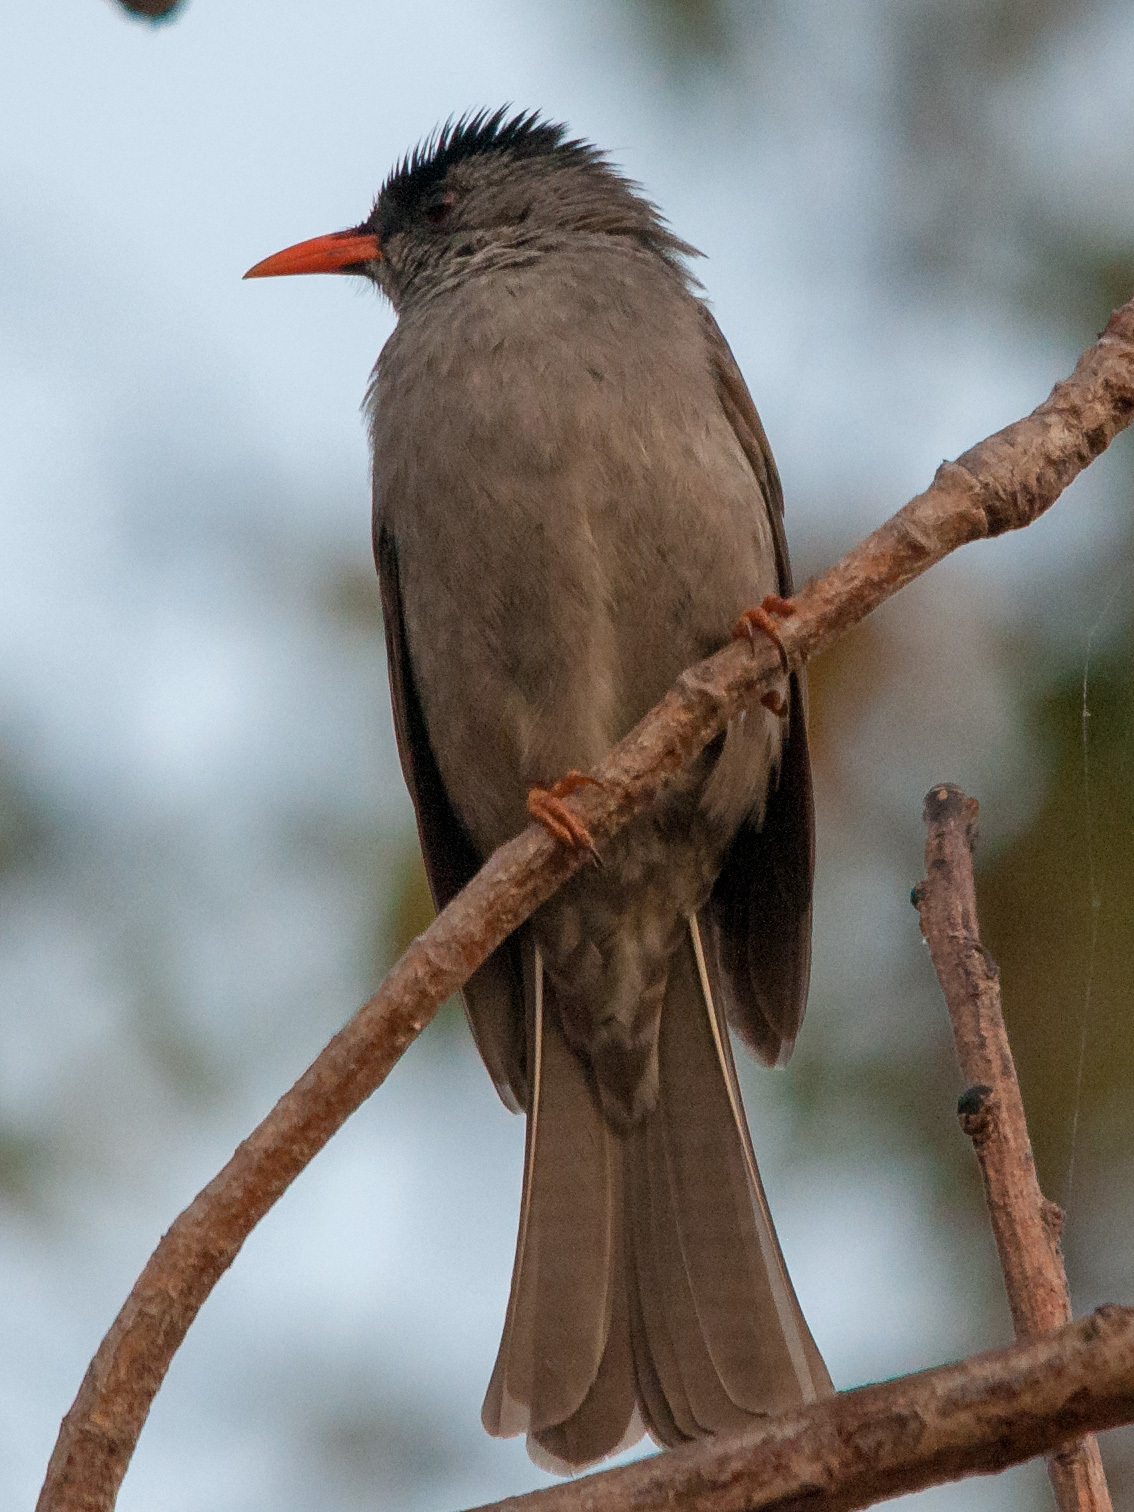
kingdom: Animalia
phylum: Chordata
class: Aves
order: Passeriformes
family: Pycnonotidae
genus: Hypsipetes
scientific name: Hypsipetes madagascariensis
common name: Malagasy bulbul
